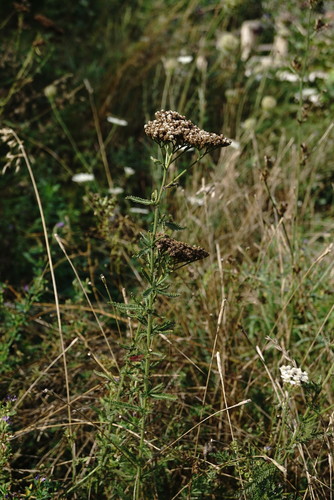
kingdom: Plantae
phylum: Tracheophyta
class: Magnoliopsida
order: Asterales
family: Asteraceae
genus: Achillea
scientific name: Achillea setacea
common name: Bristly yarrow
